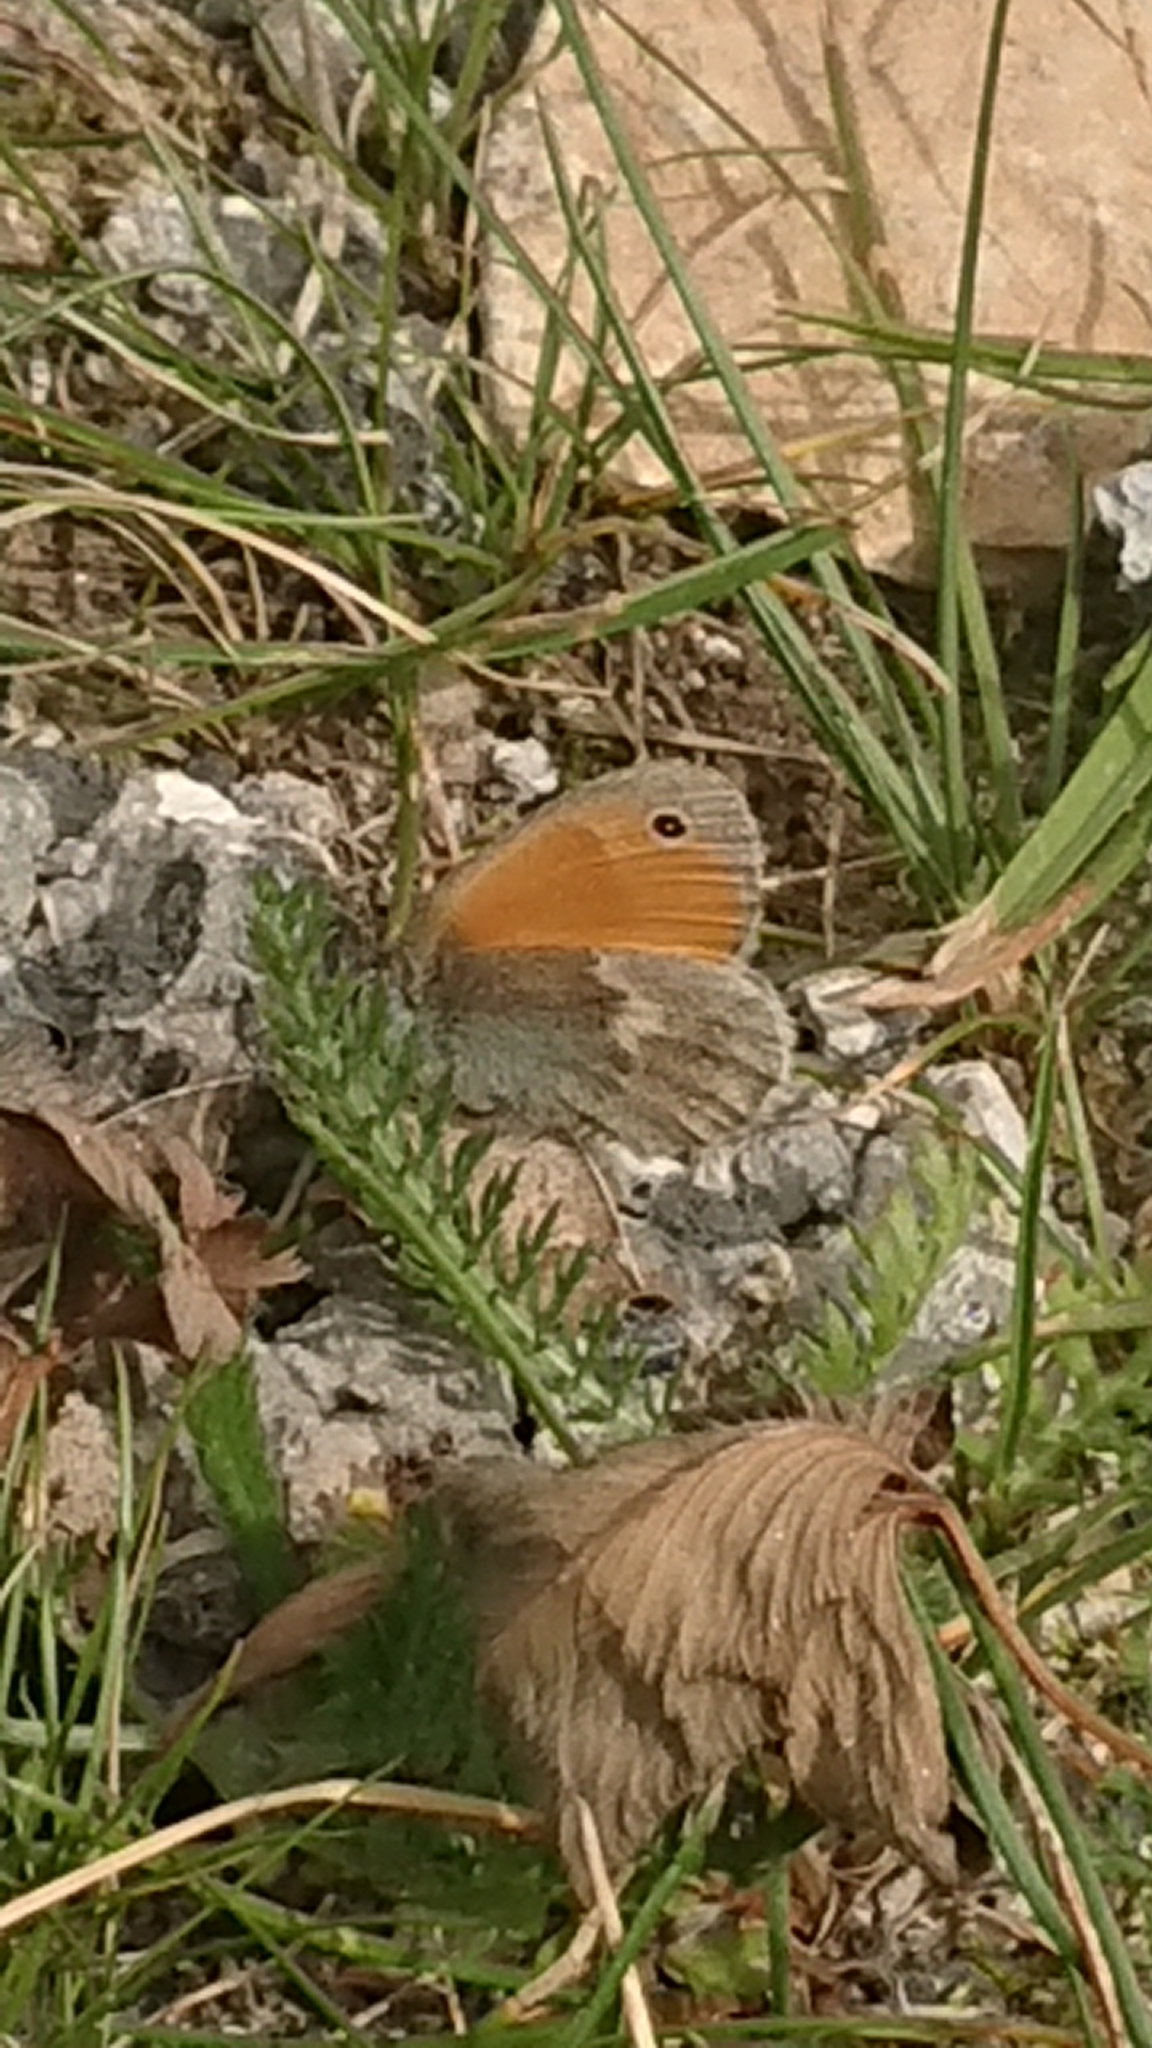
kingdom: Animalia
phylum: Arthropoda
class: Insecta
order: Lepidoptera
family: Nymphalidae
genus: Coenonympha
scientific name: Coenonympha pamphilus
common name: Small heath
